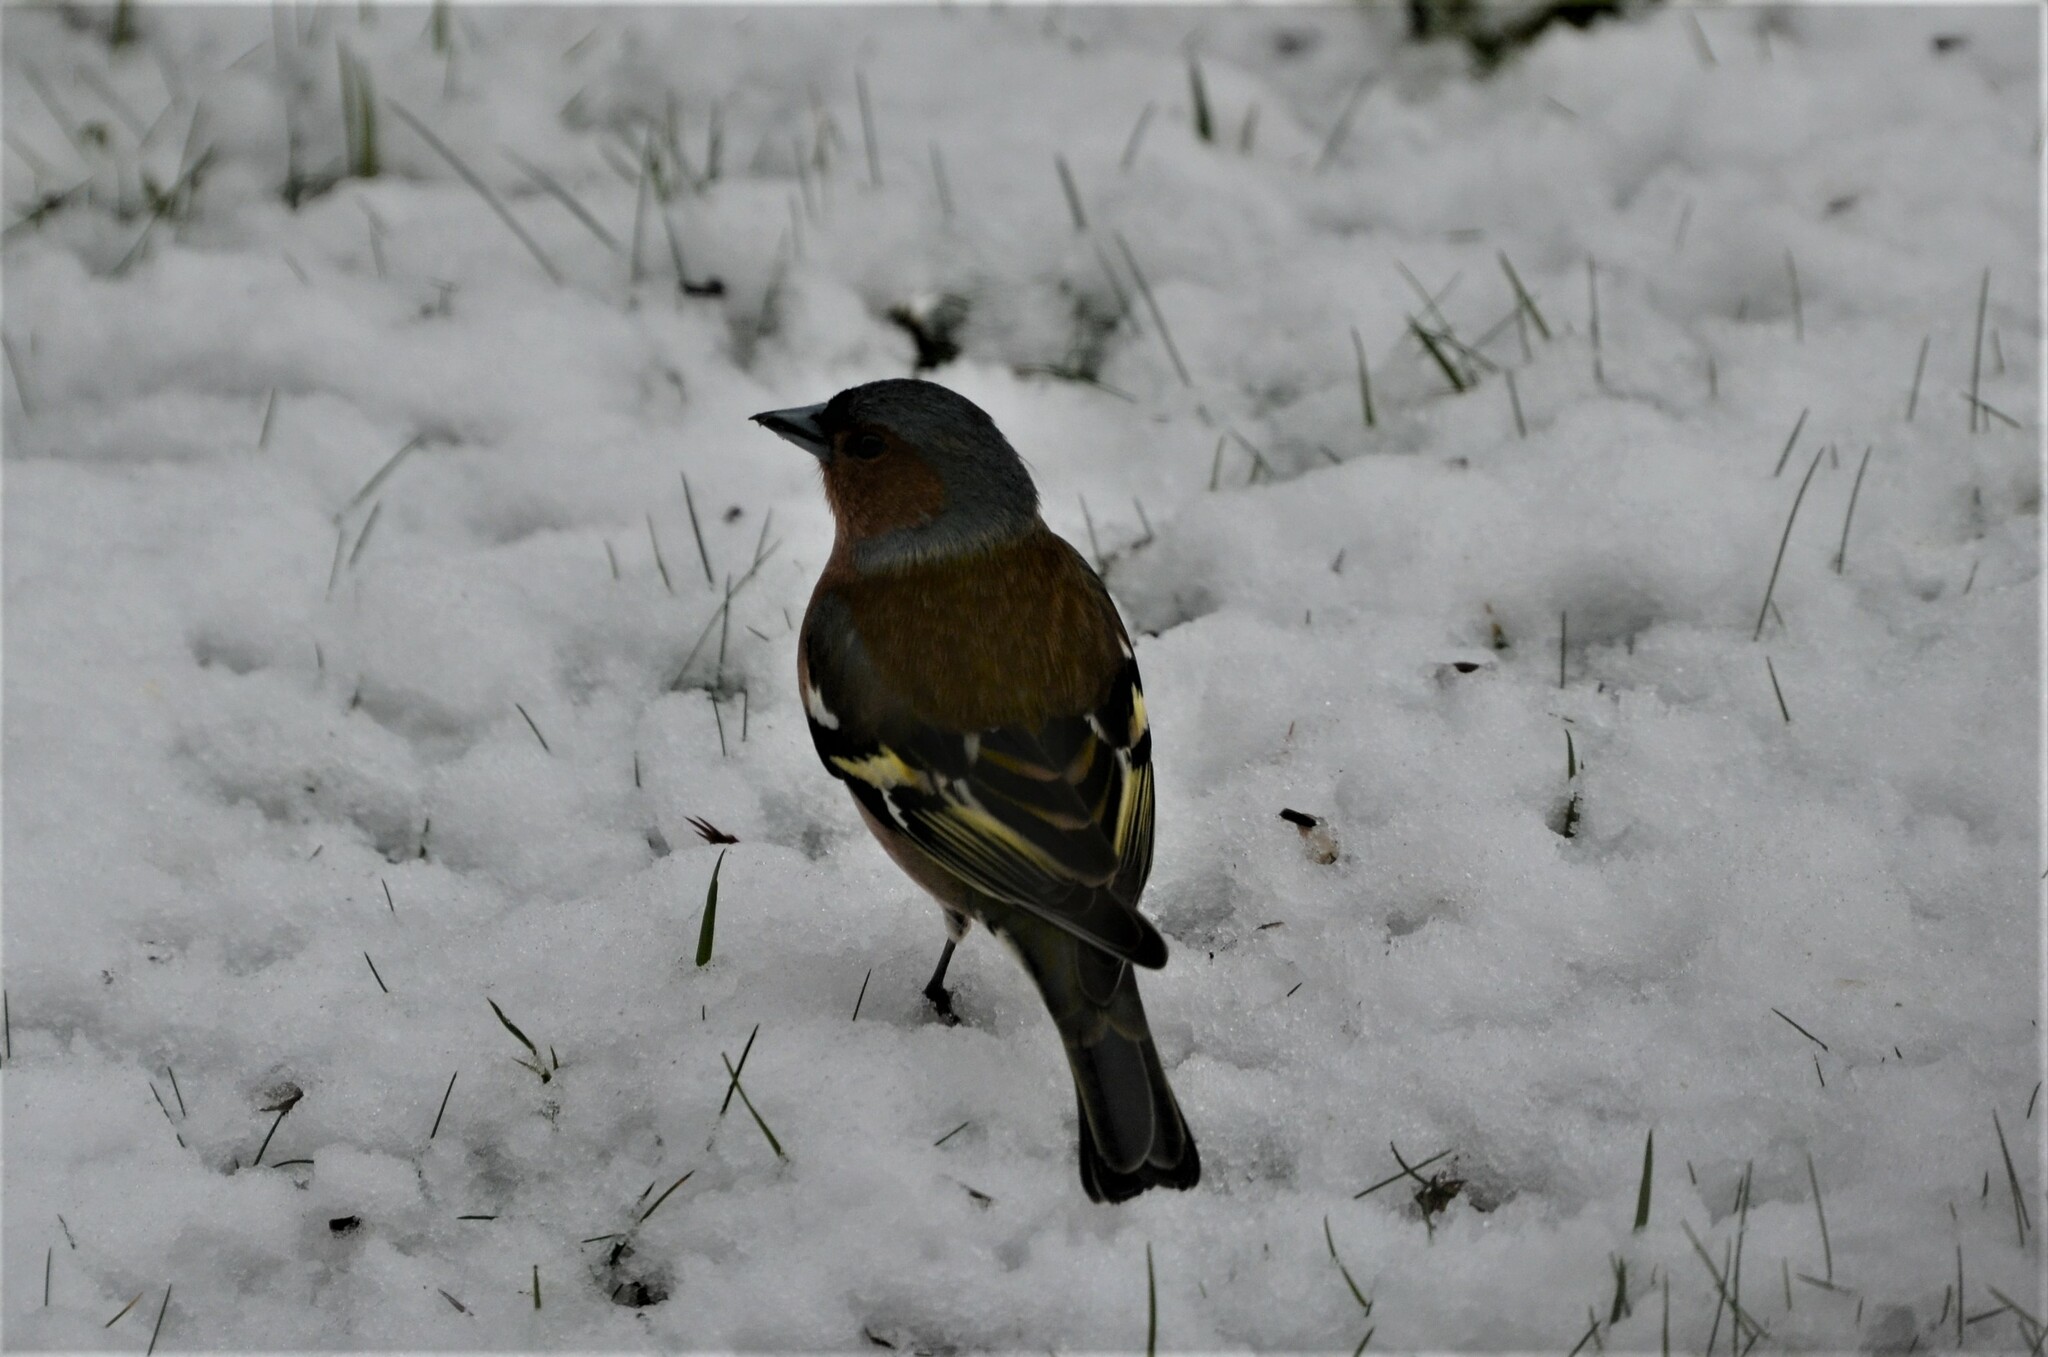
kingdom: Animalia
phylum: Chordata
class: Aves
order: Passeriformes
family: Fringillidae
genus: Fringilla
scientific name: Fringilla coelebs
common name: Common chaffinch
